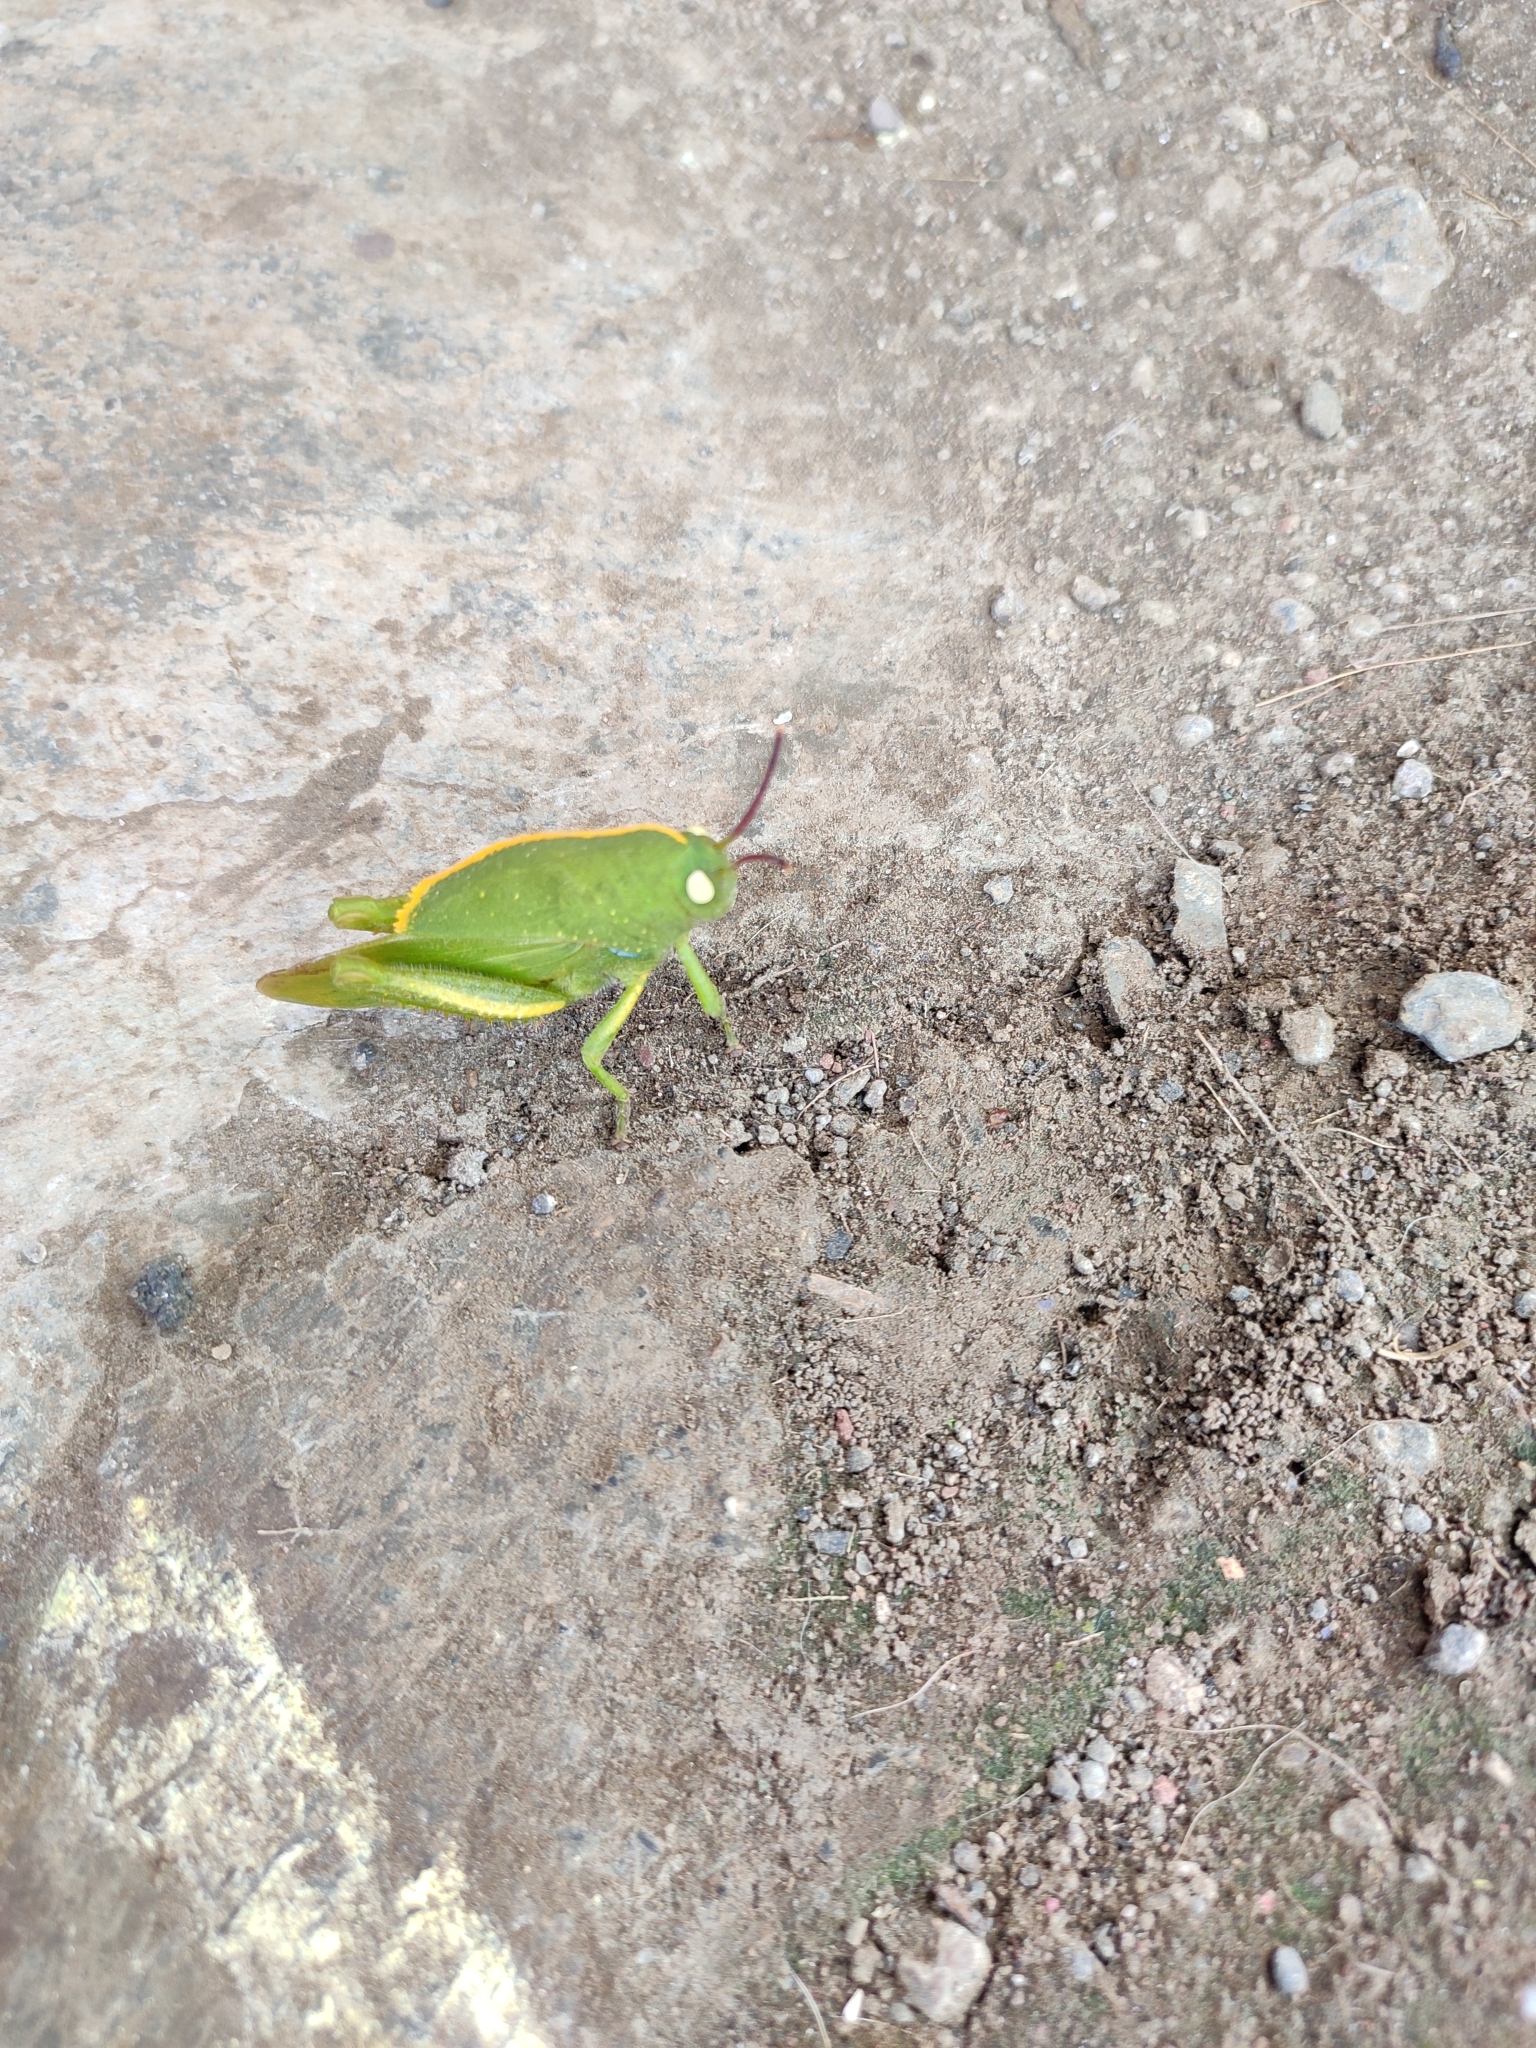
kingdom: Animalia
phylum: Arthropoda
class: Insecta
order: Orthoptera
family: Acrididae
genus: Teratodes
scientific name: Teratodes monticollis
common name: Hooded grasshopper
